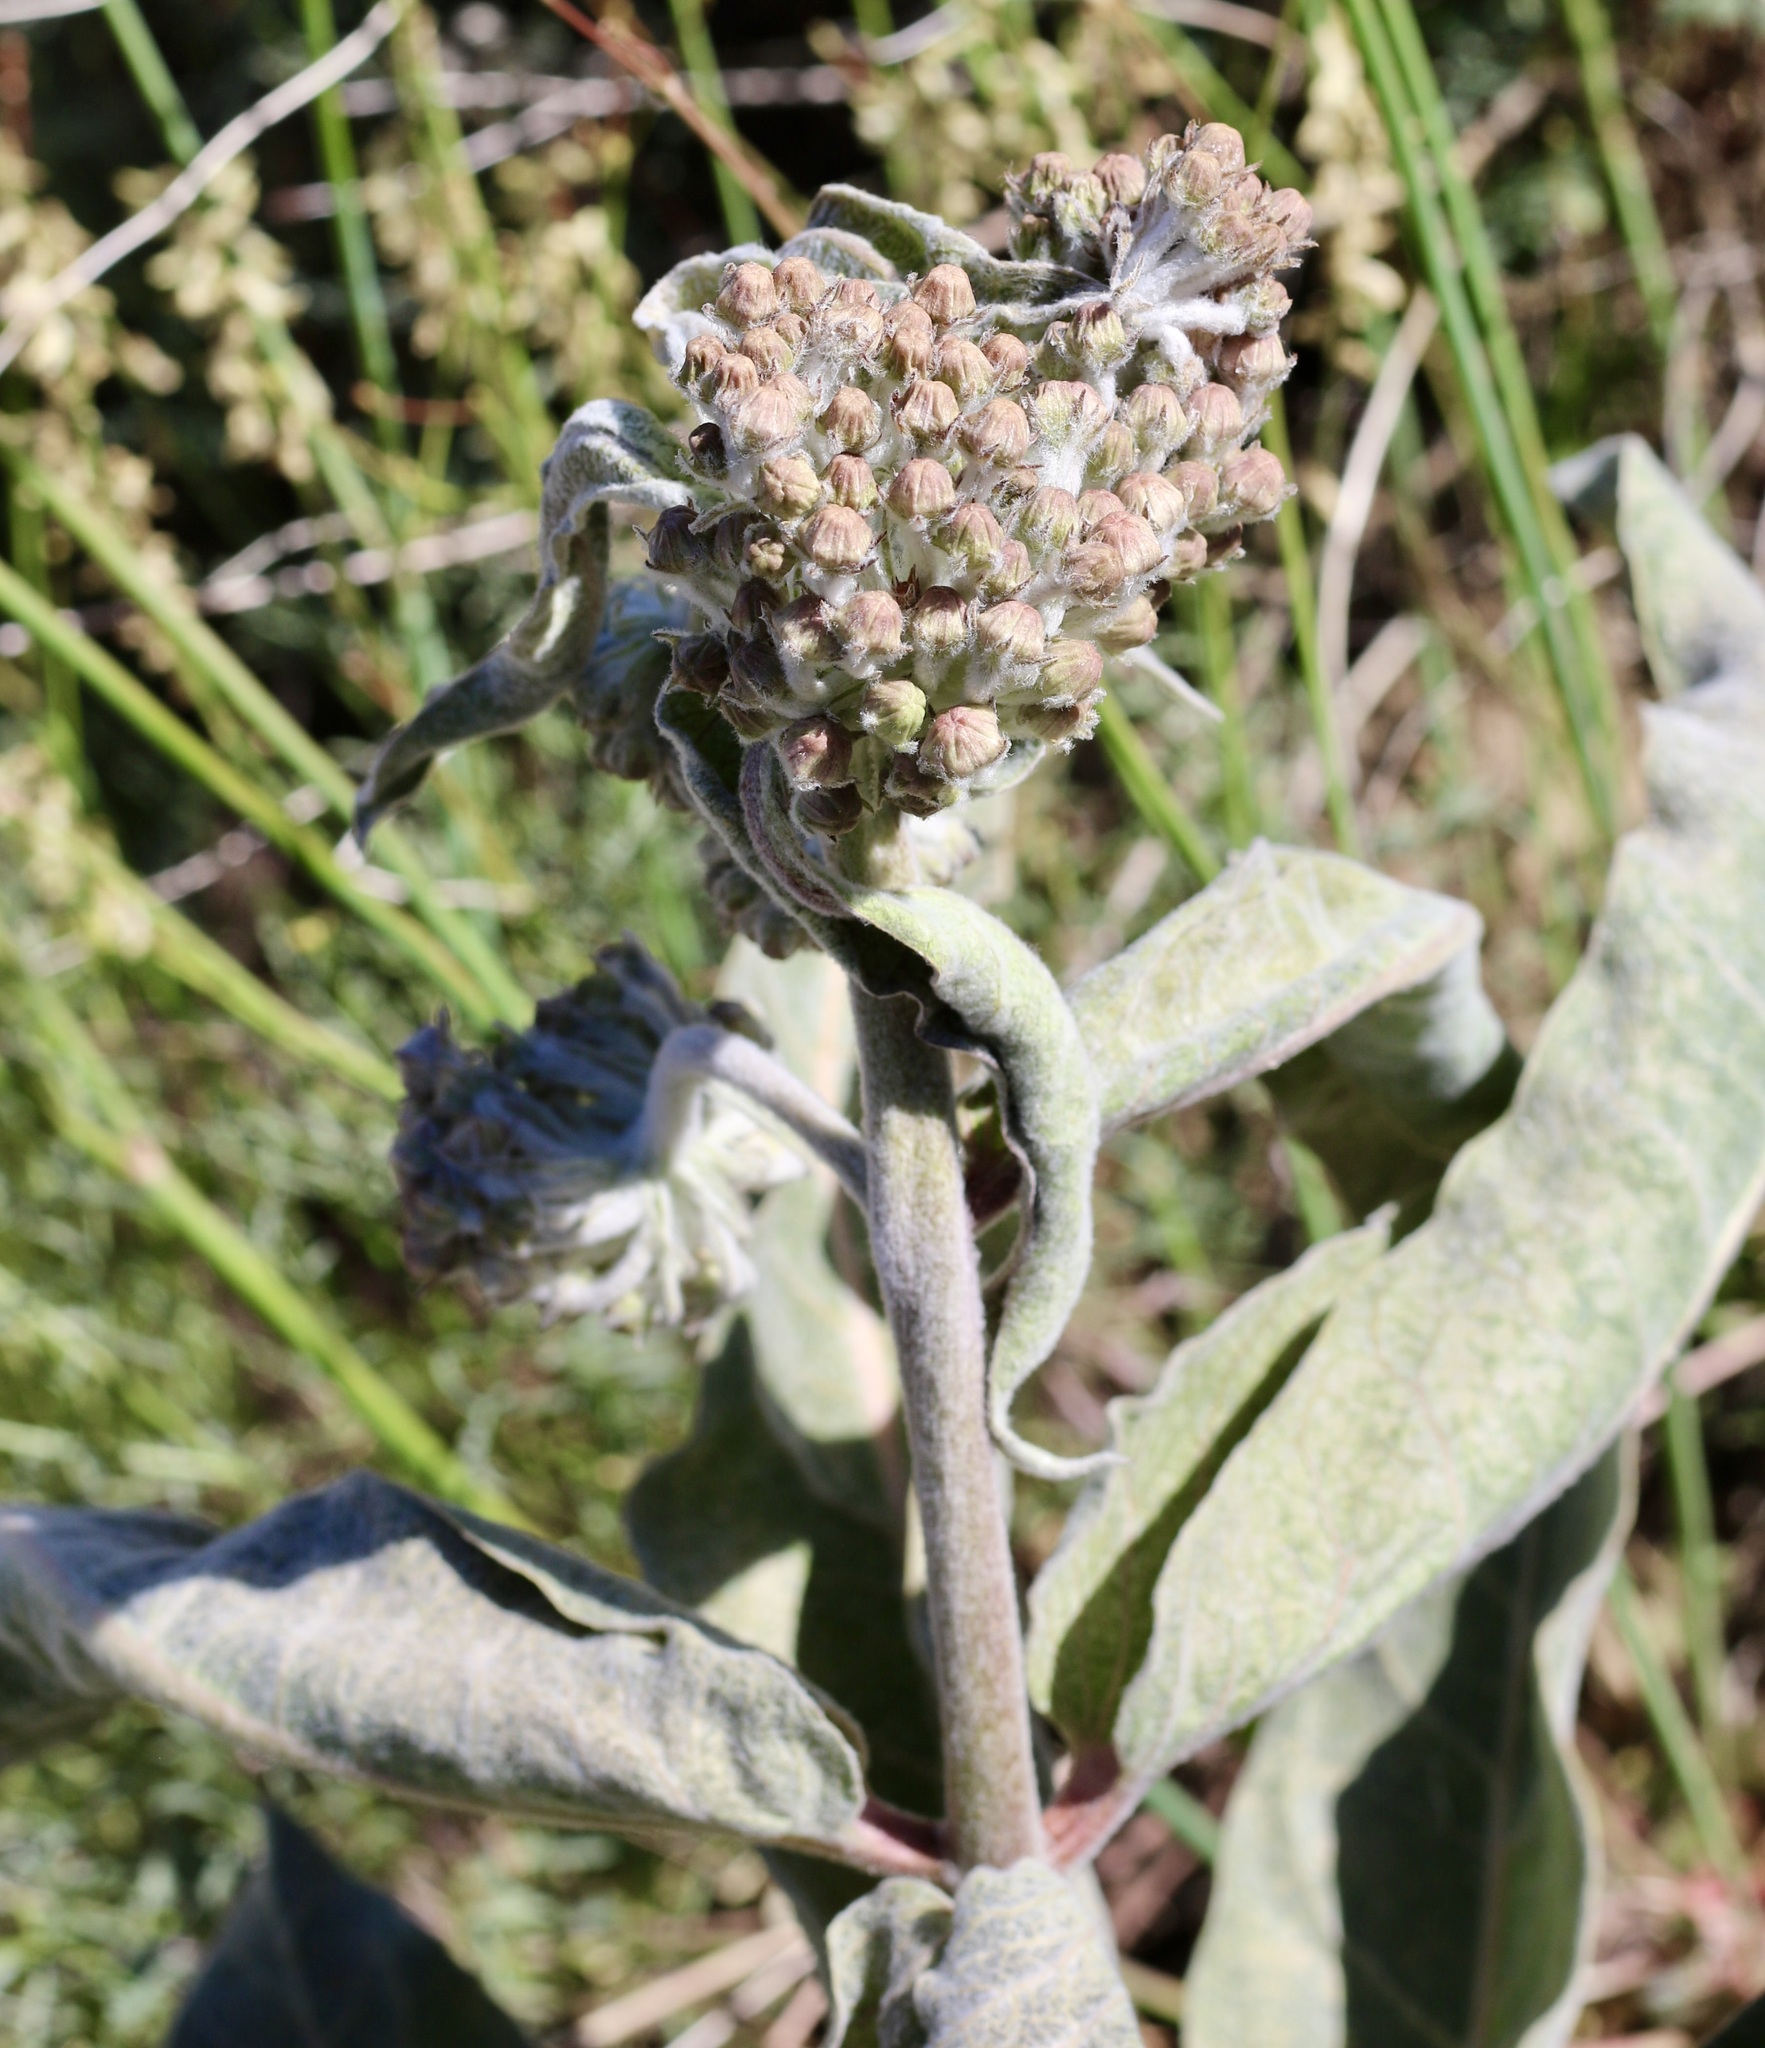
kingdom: Plantae
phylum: Tracheophyta
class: Magnoliopsida
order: Gentianales
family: Apocynaceae
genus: Asclepias
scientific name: Asclepias eriocarpa
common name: Indian milkweed
